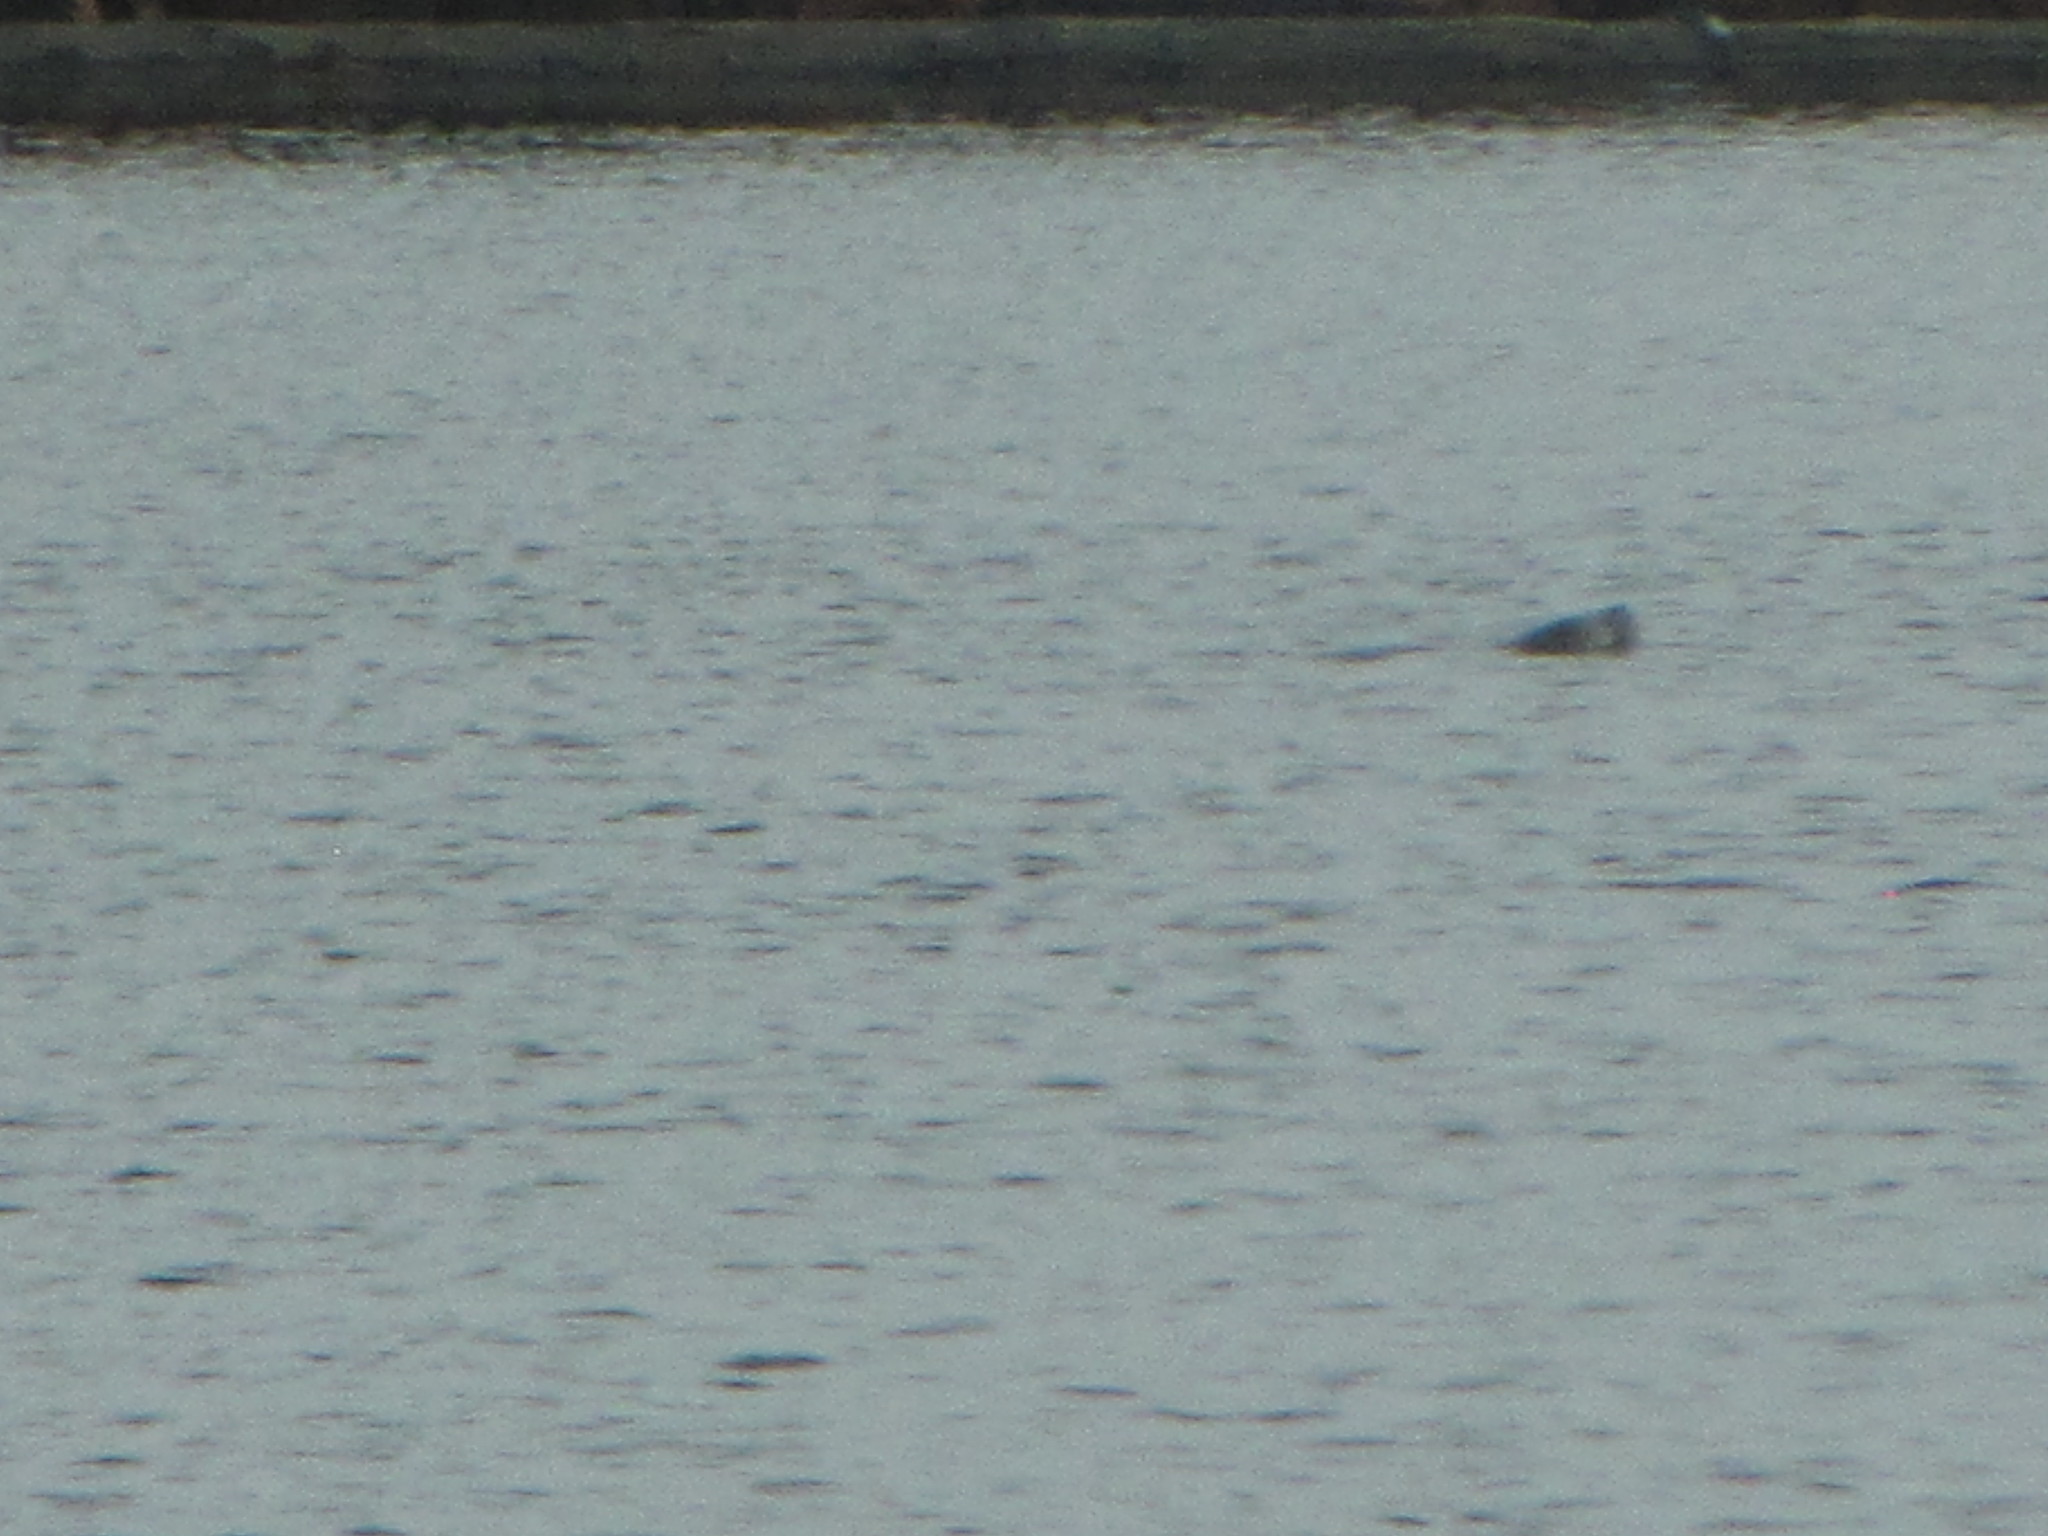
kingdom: Animalia
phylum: Chordata
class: Mammalia
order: Carnivora
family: Phocidae
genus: Phoca
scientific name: Phoca vitulina
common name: Harbor seal
